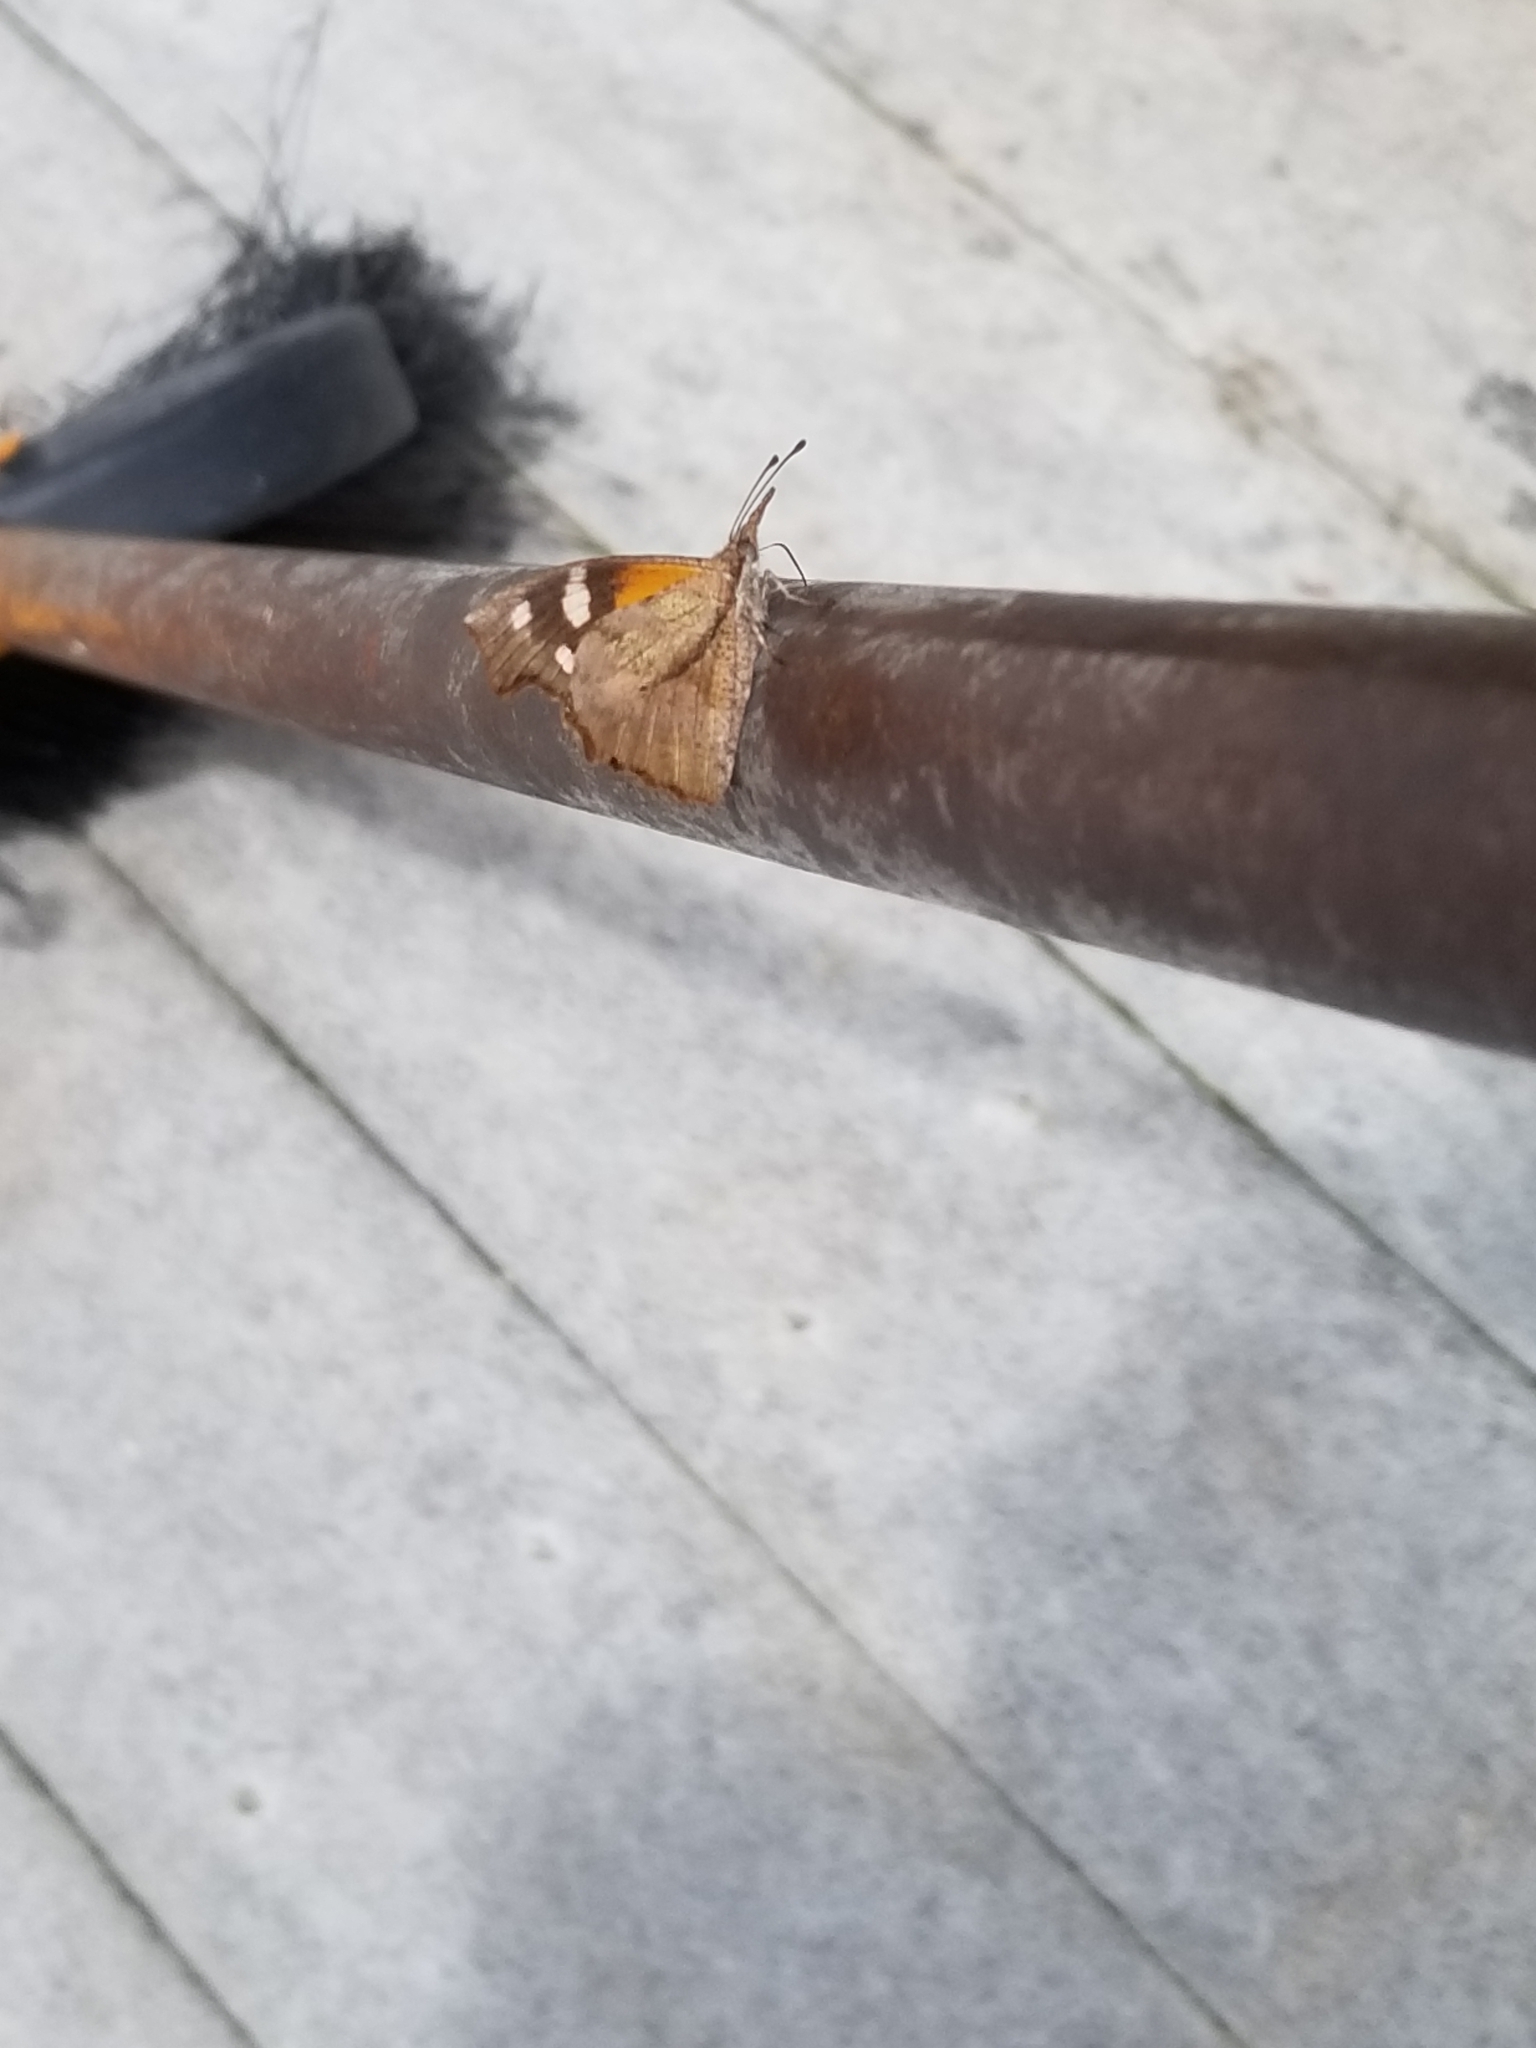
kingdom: Animalia
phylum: Arthropoda
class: Insecta
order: Lepidoptera
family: Nymphalidae
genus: Libytheana
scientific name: Libytheana carinenta
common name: American snout
